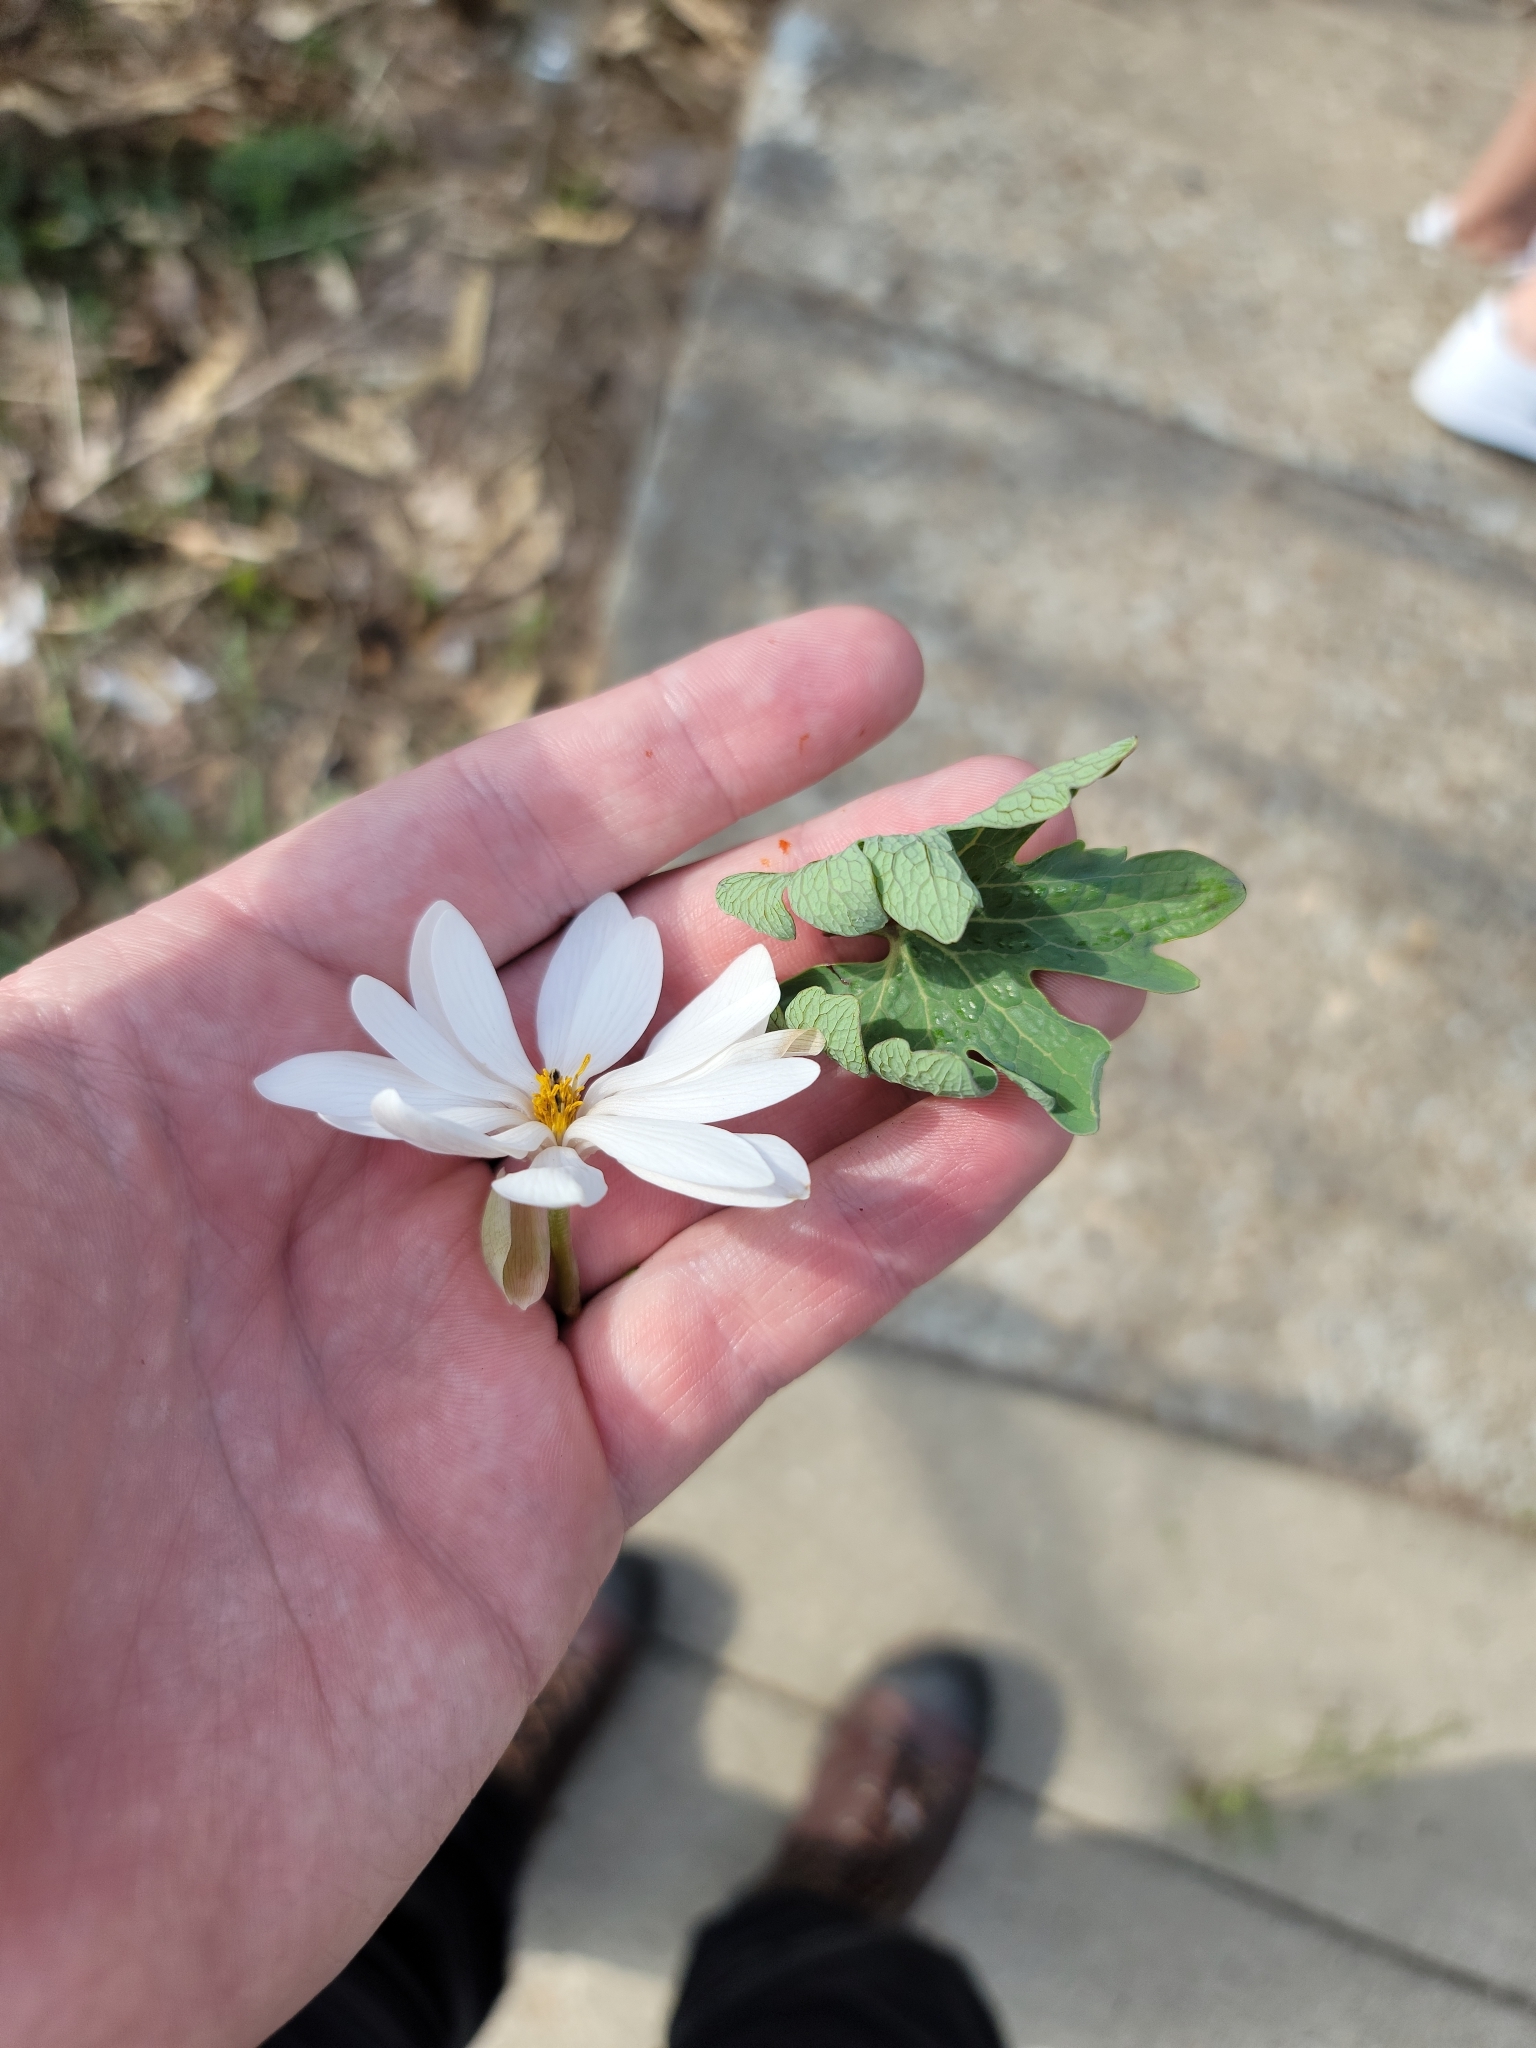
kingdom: Plantae
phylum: Tracheophyta
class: Magnoliopsida
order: Ranunculales
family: Papaveraceae
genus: Sanguinaria
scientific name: Sanguinaria canadensis
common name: Bloodroot
